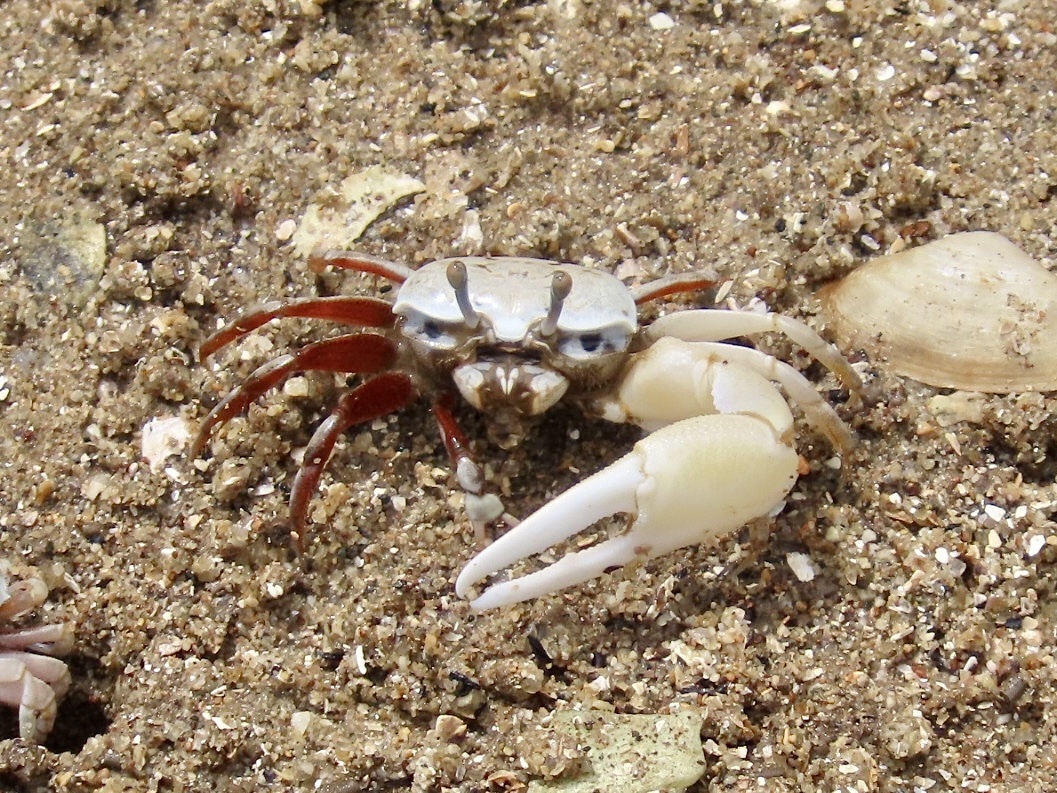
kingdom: Animalia
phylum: Arthropoda
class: Malacostraca
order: Decapoda
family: Ocypodidae
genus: Austruca
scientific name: Austruca lactea
